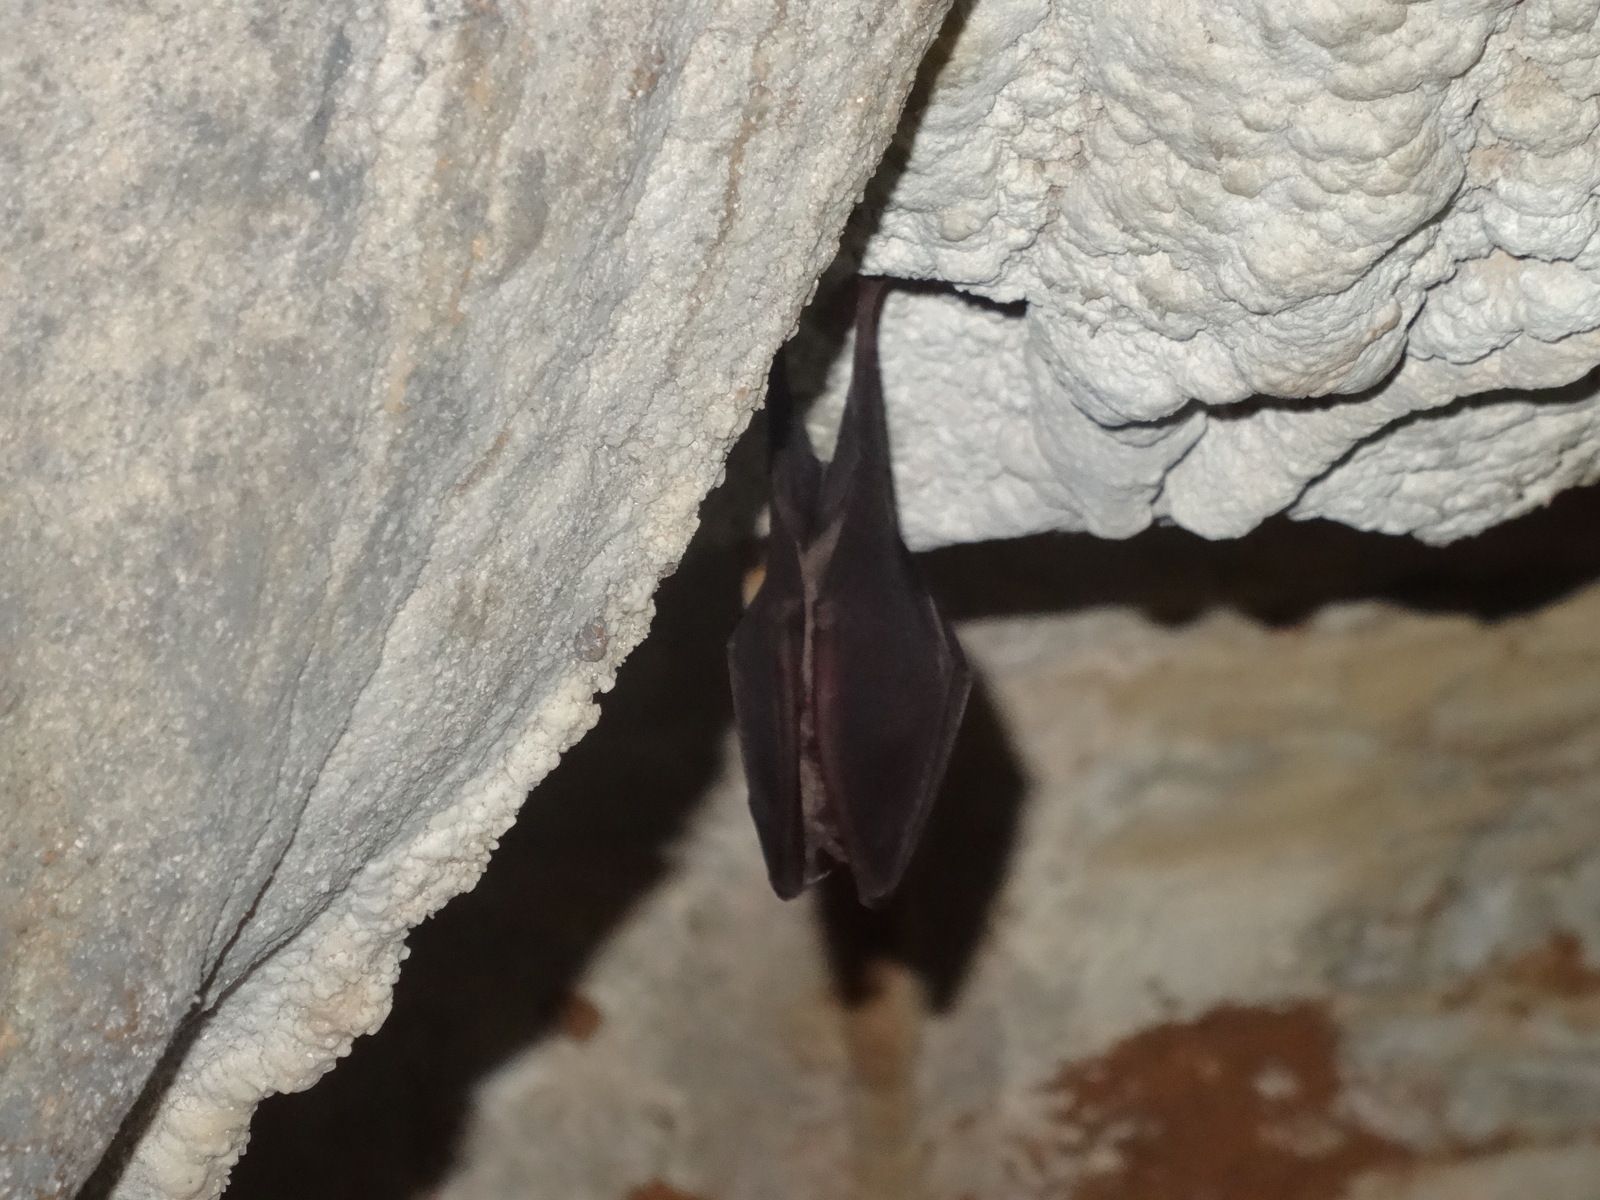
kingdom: Animalia
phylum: Chordata
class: Mammalia
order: Chiroptera
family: Rhinolophidae
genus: Rhinolophus
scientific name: Rhinolophus
